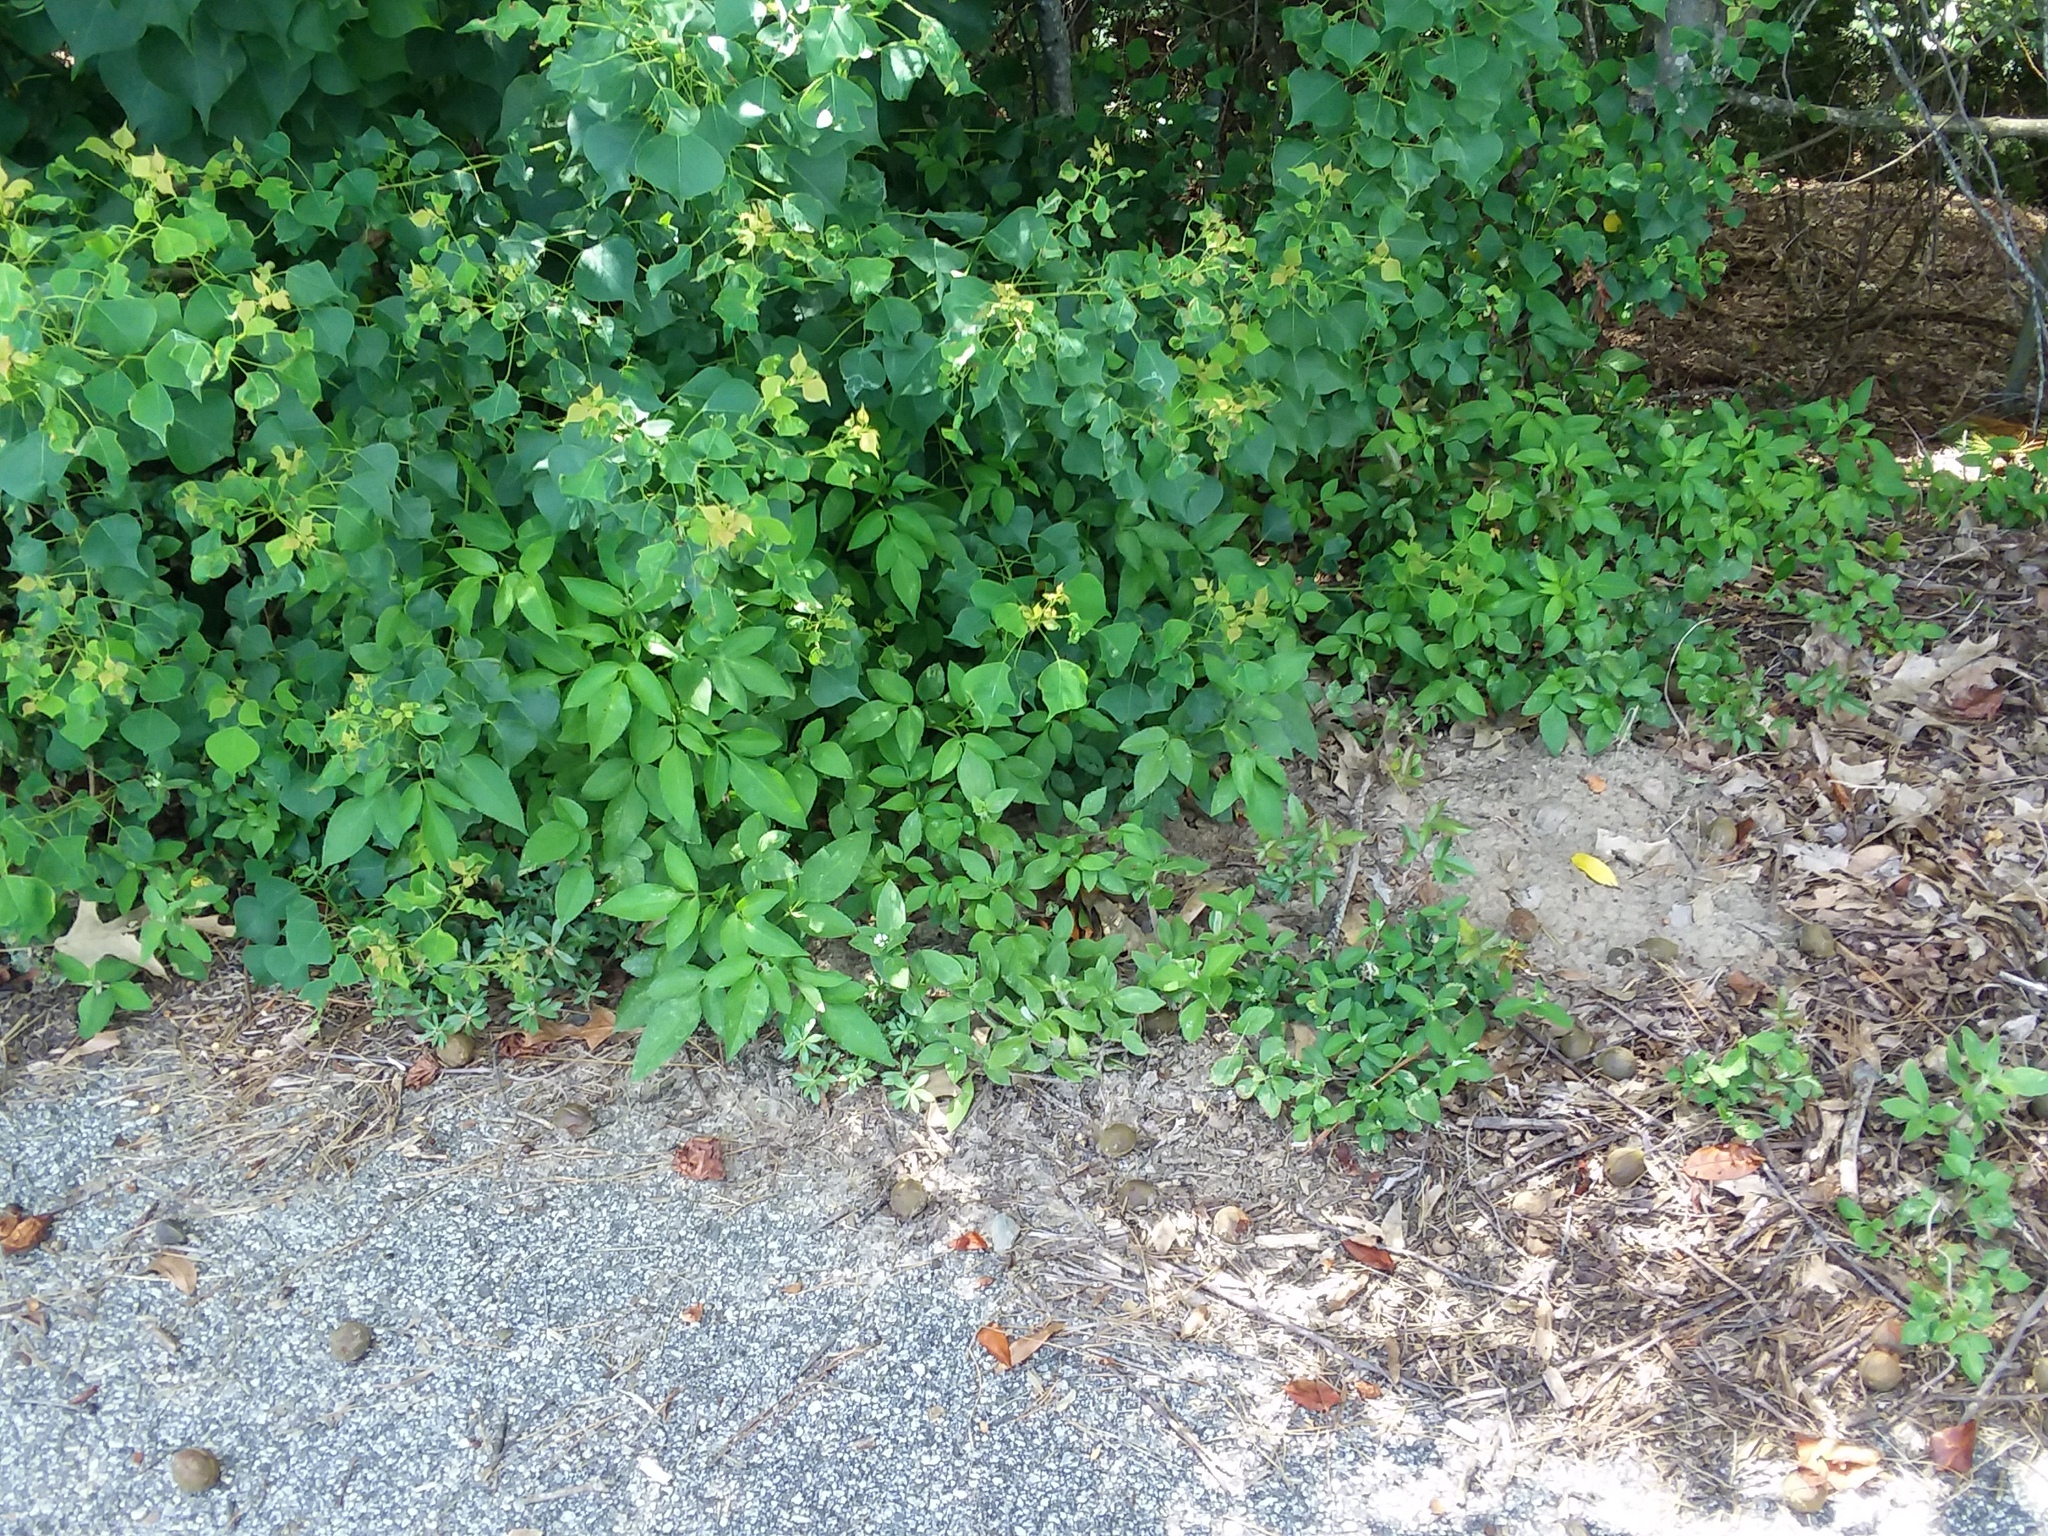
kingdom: Plantae
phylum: Tracheophyta
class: Magnoliopsida
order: Malpighiales
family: Euphorbiaceae
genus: Triadica
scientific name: Triadica sebifera
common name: Chinese tallow
